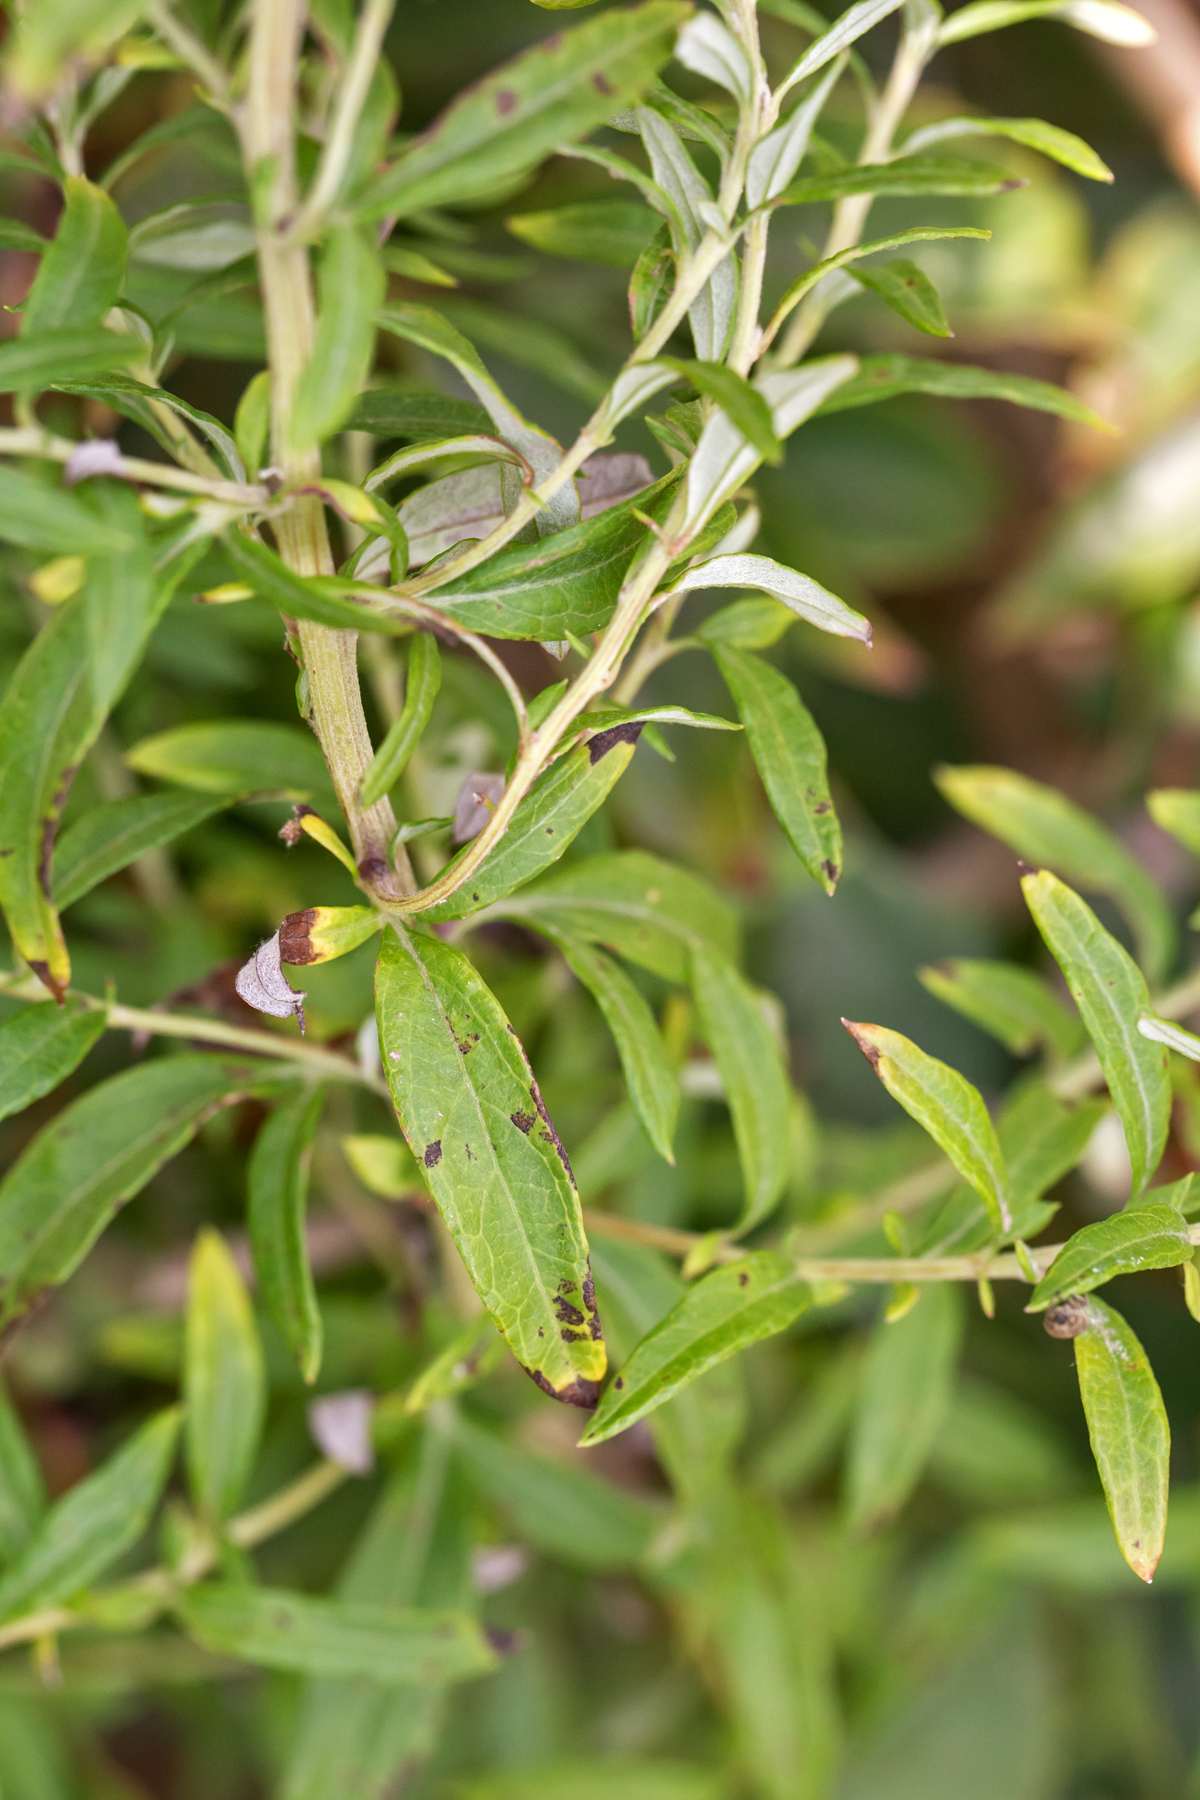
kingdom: Plantae
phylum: Tracheophyta
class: Magnoliopsida
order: Asterales
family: Asteraceae
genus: Artemisia
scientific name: Artemisia vulgaris
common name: Mugwort
